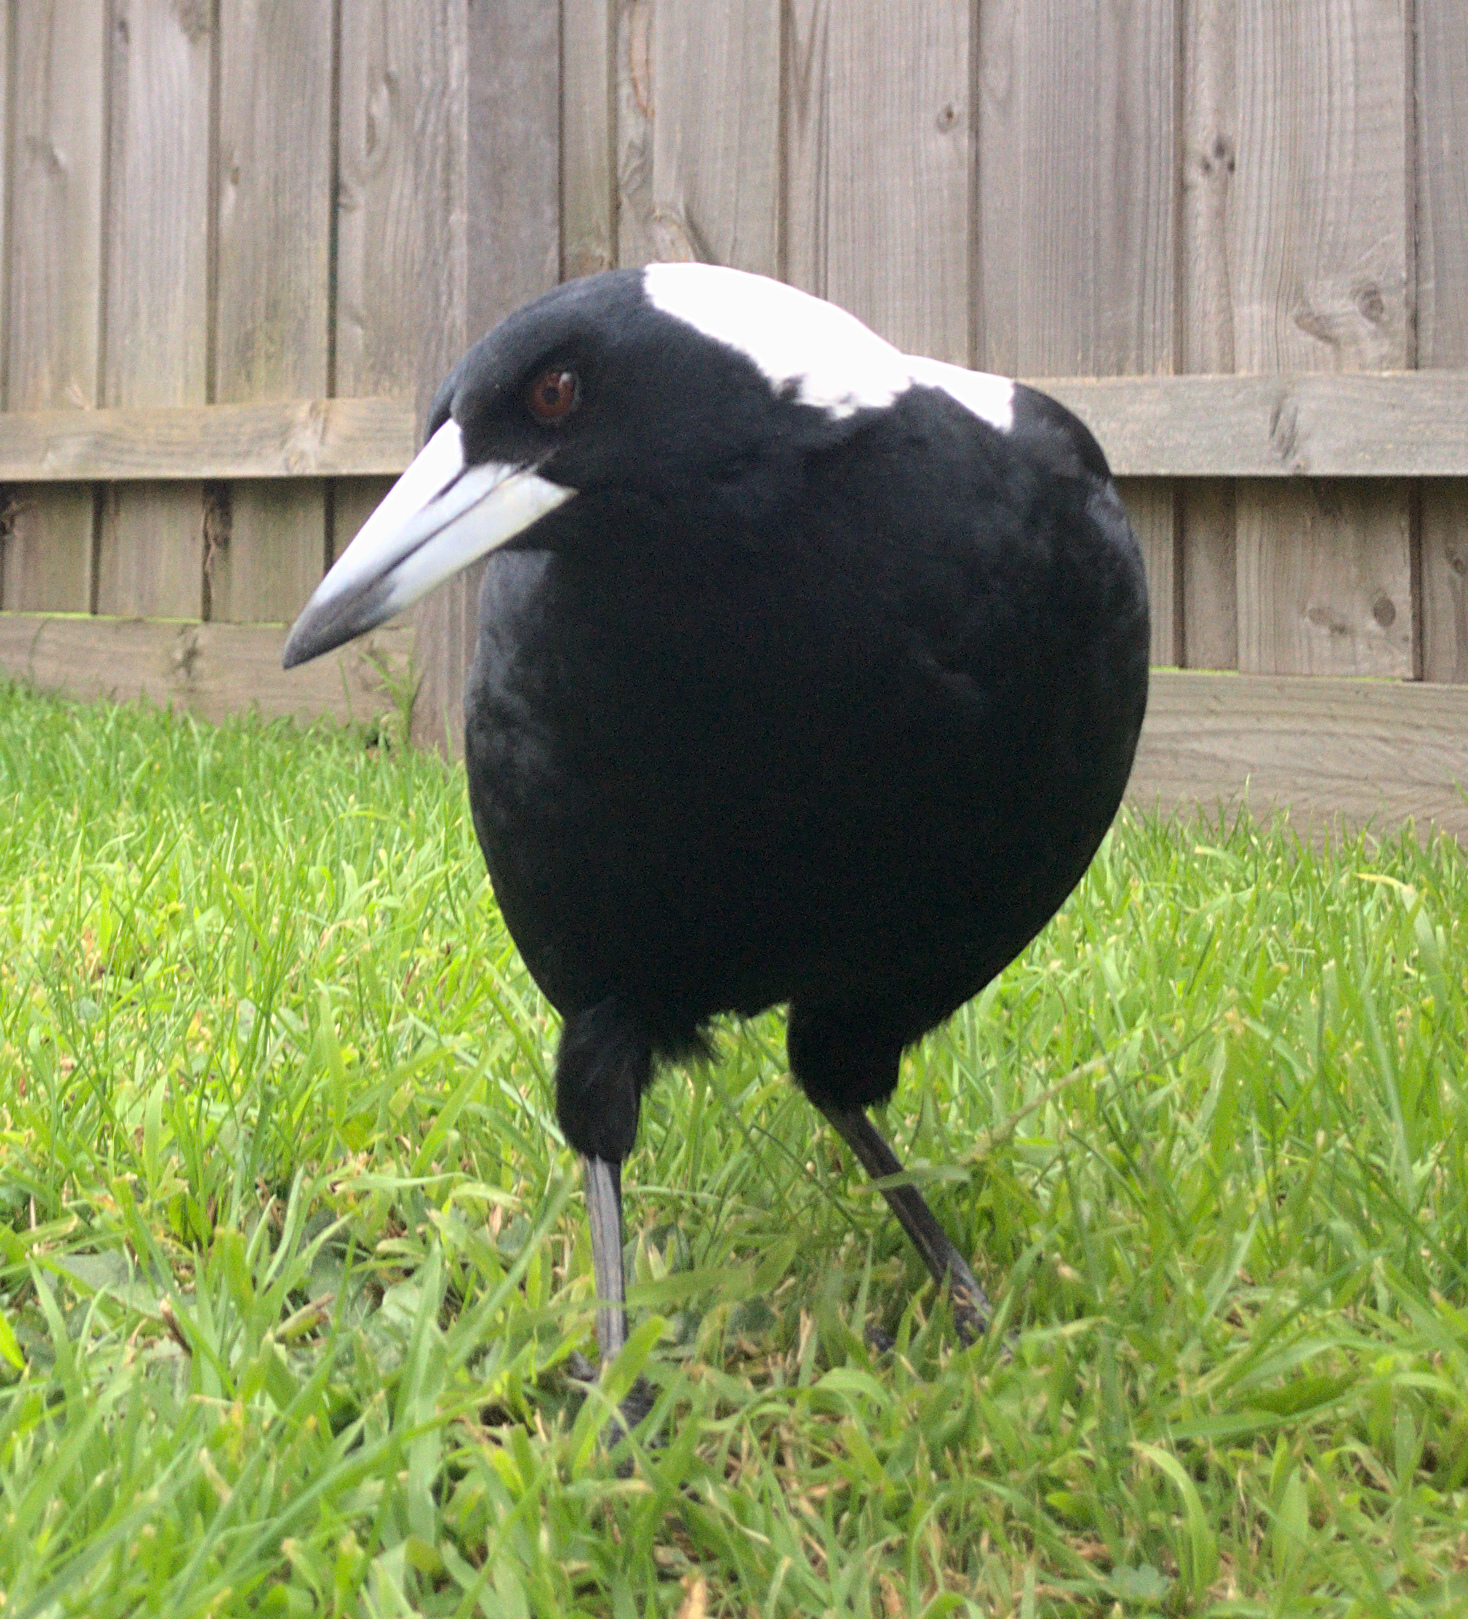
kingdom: Animalia
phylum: Chordata
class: Aves
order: Passeriformes
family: Cracticidae
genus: Gymnorhina
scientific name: Gymnorhina tibicen
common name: Australian magpie
